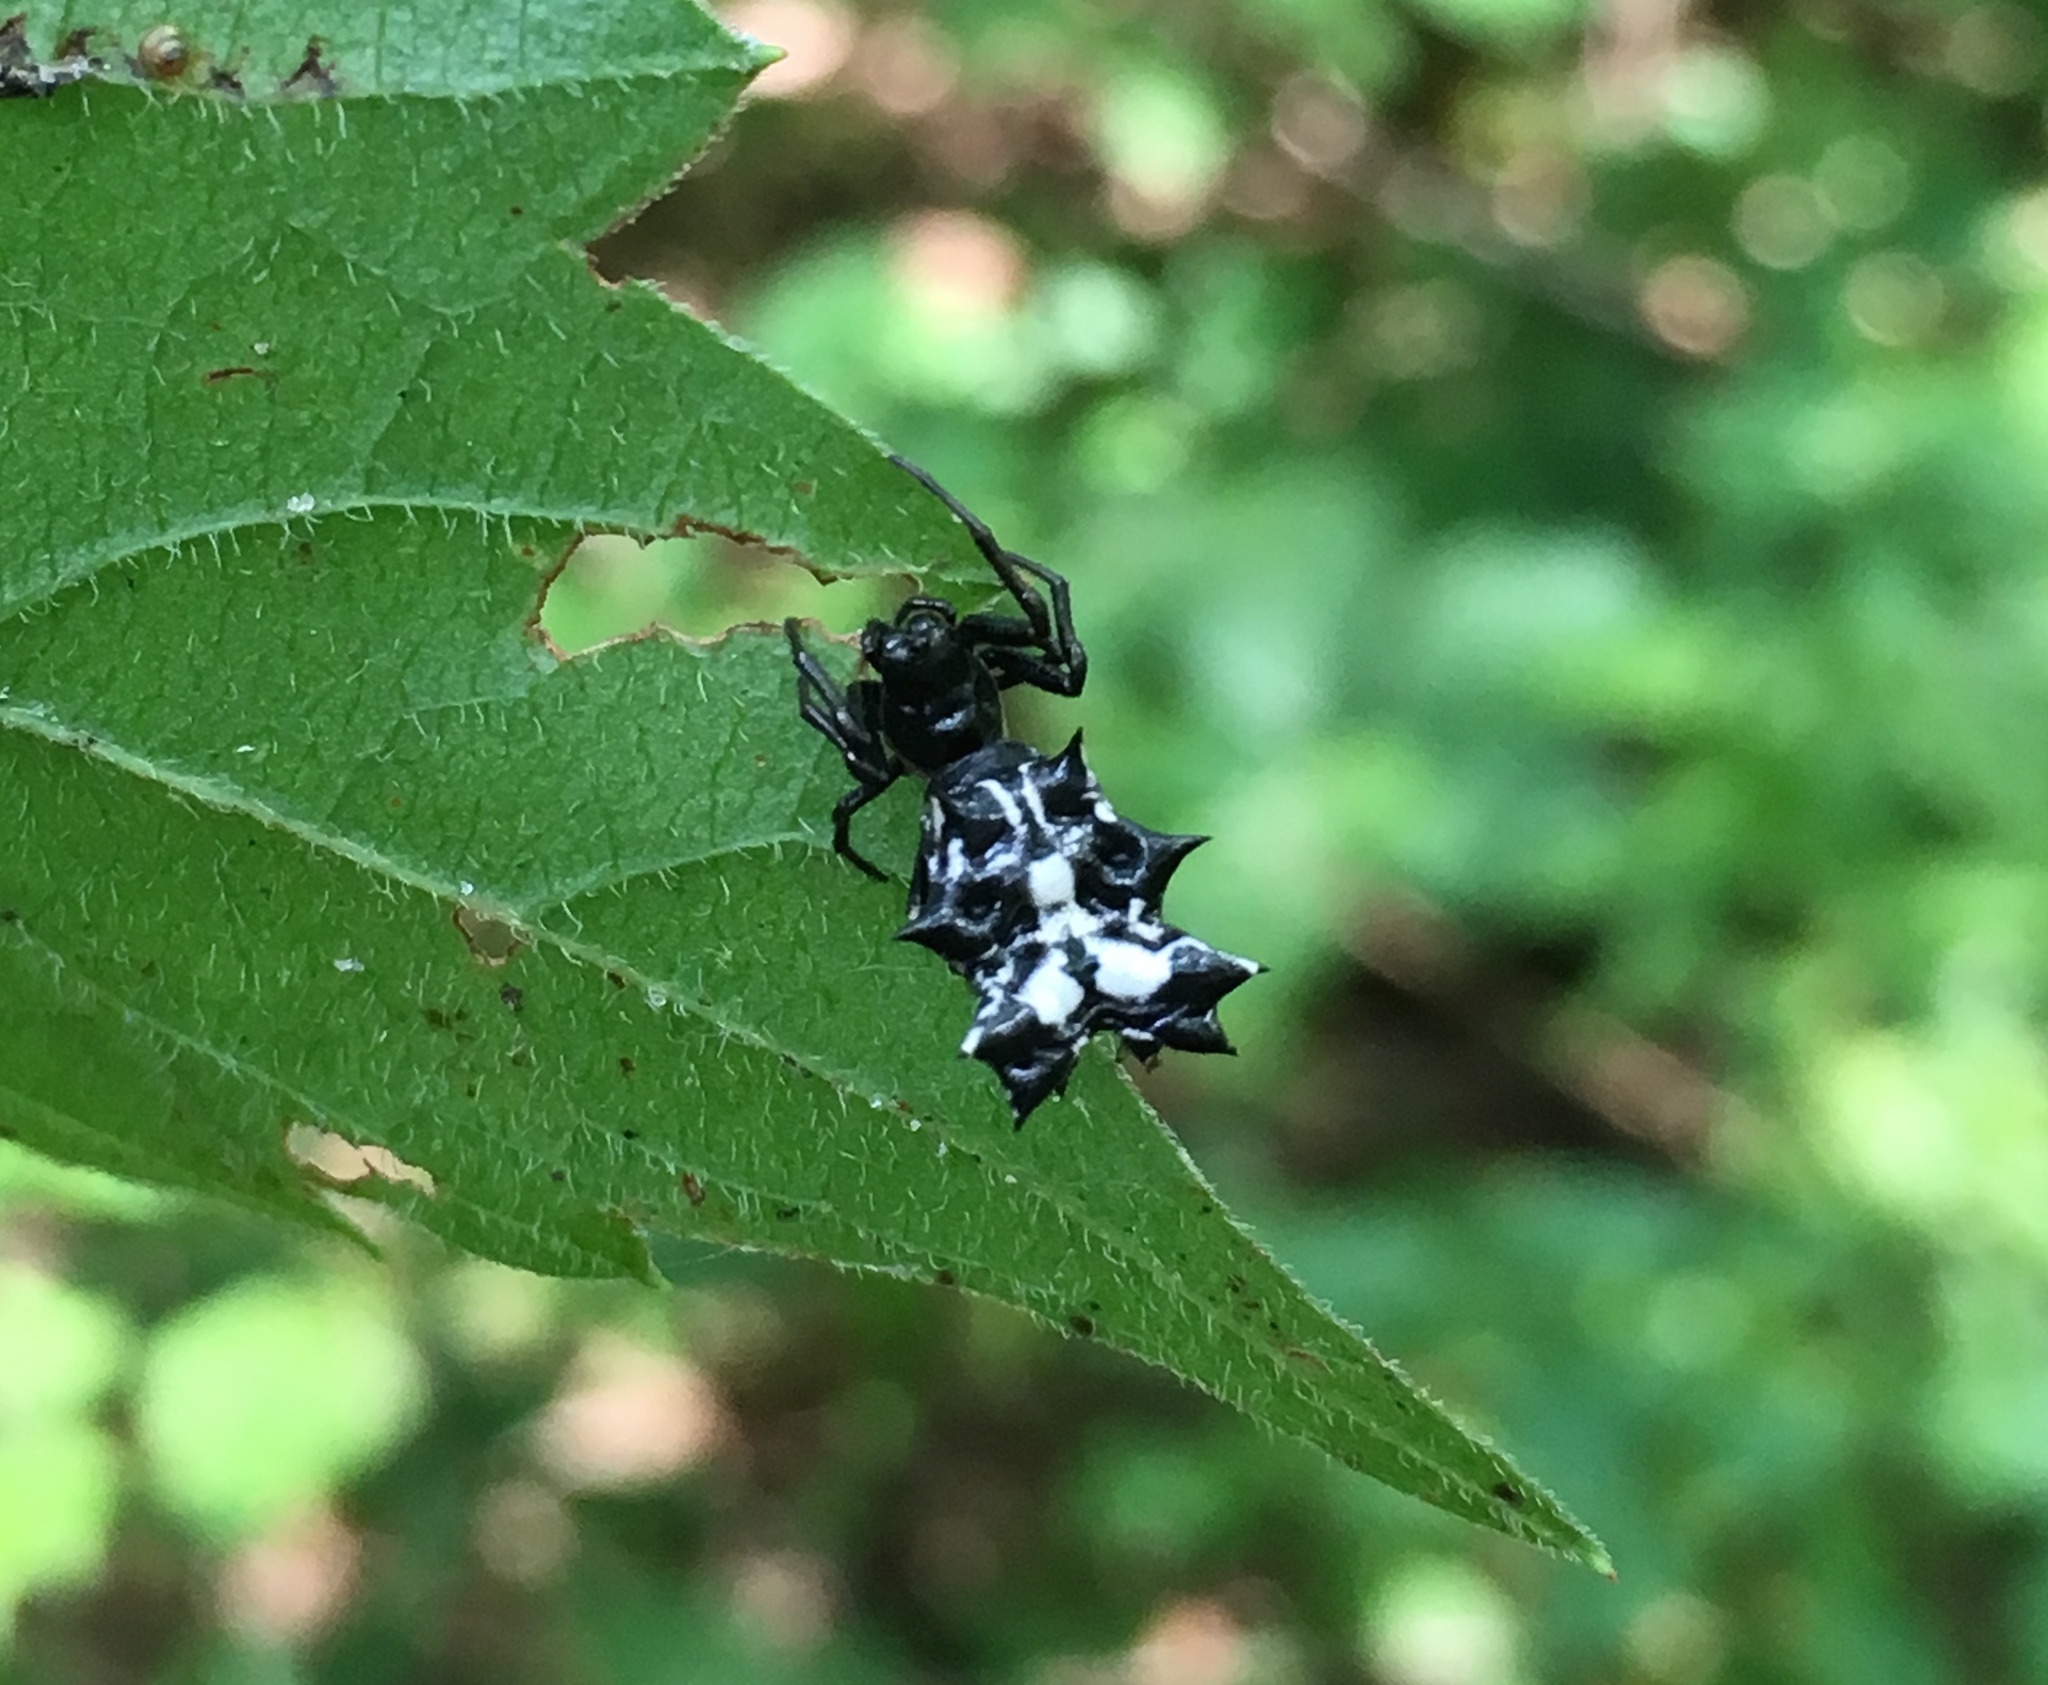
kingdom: Animalia
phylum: Arthropoda
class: Arachnida
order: Araneae
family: Araneidae
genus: Micrathena
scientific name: Micrathena gracilis
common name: Orb weavers
